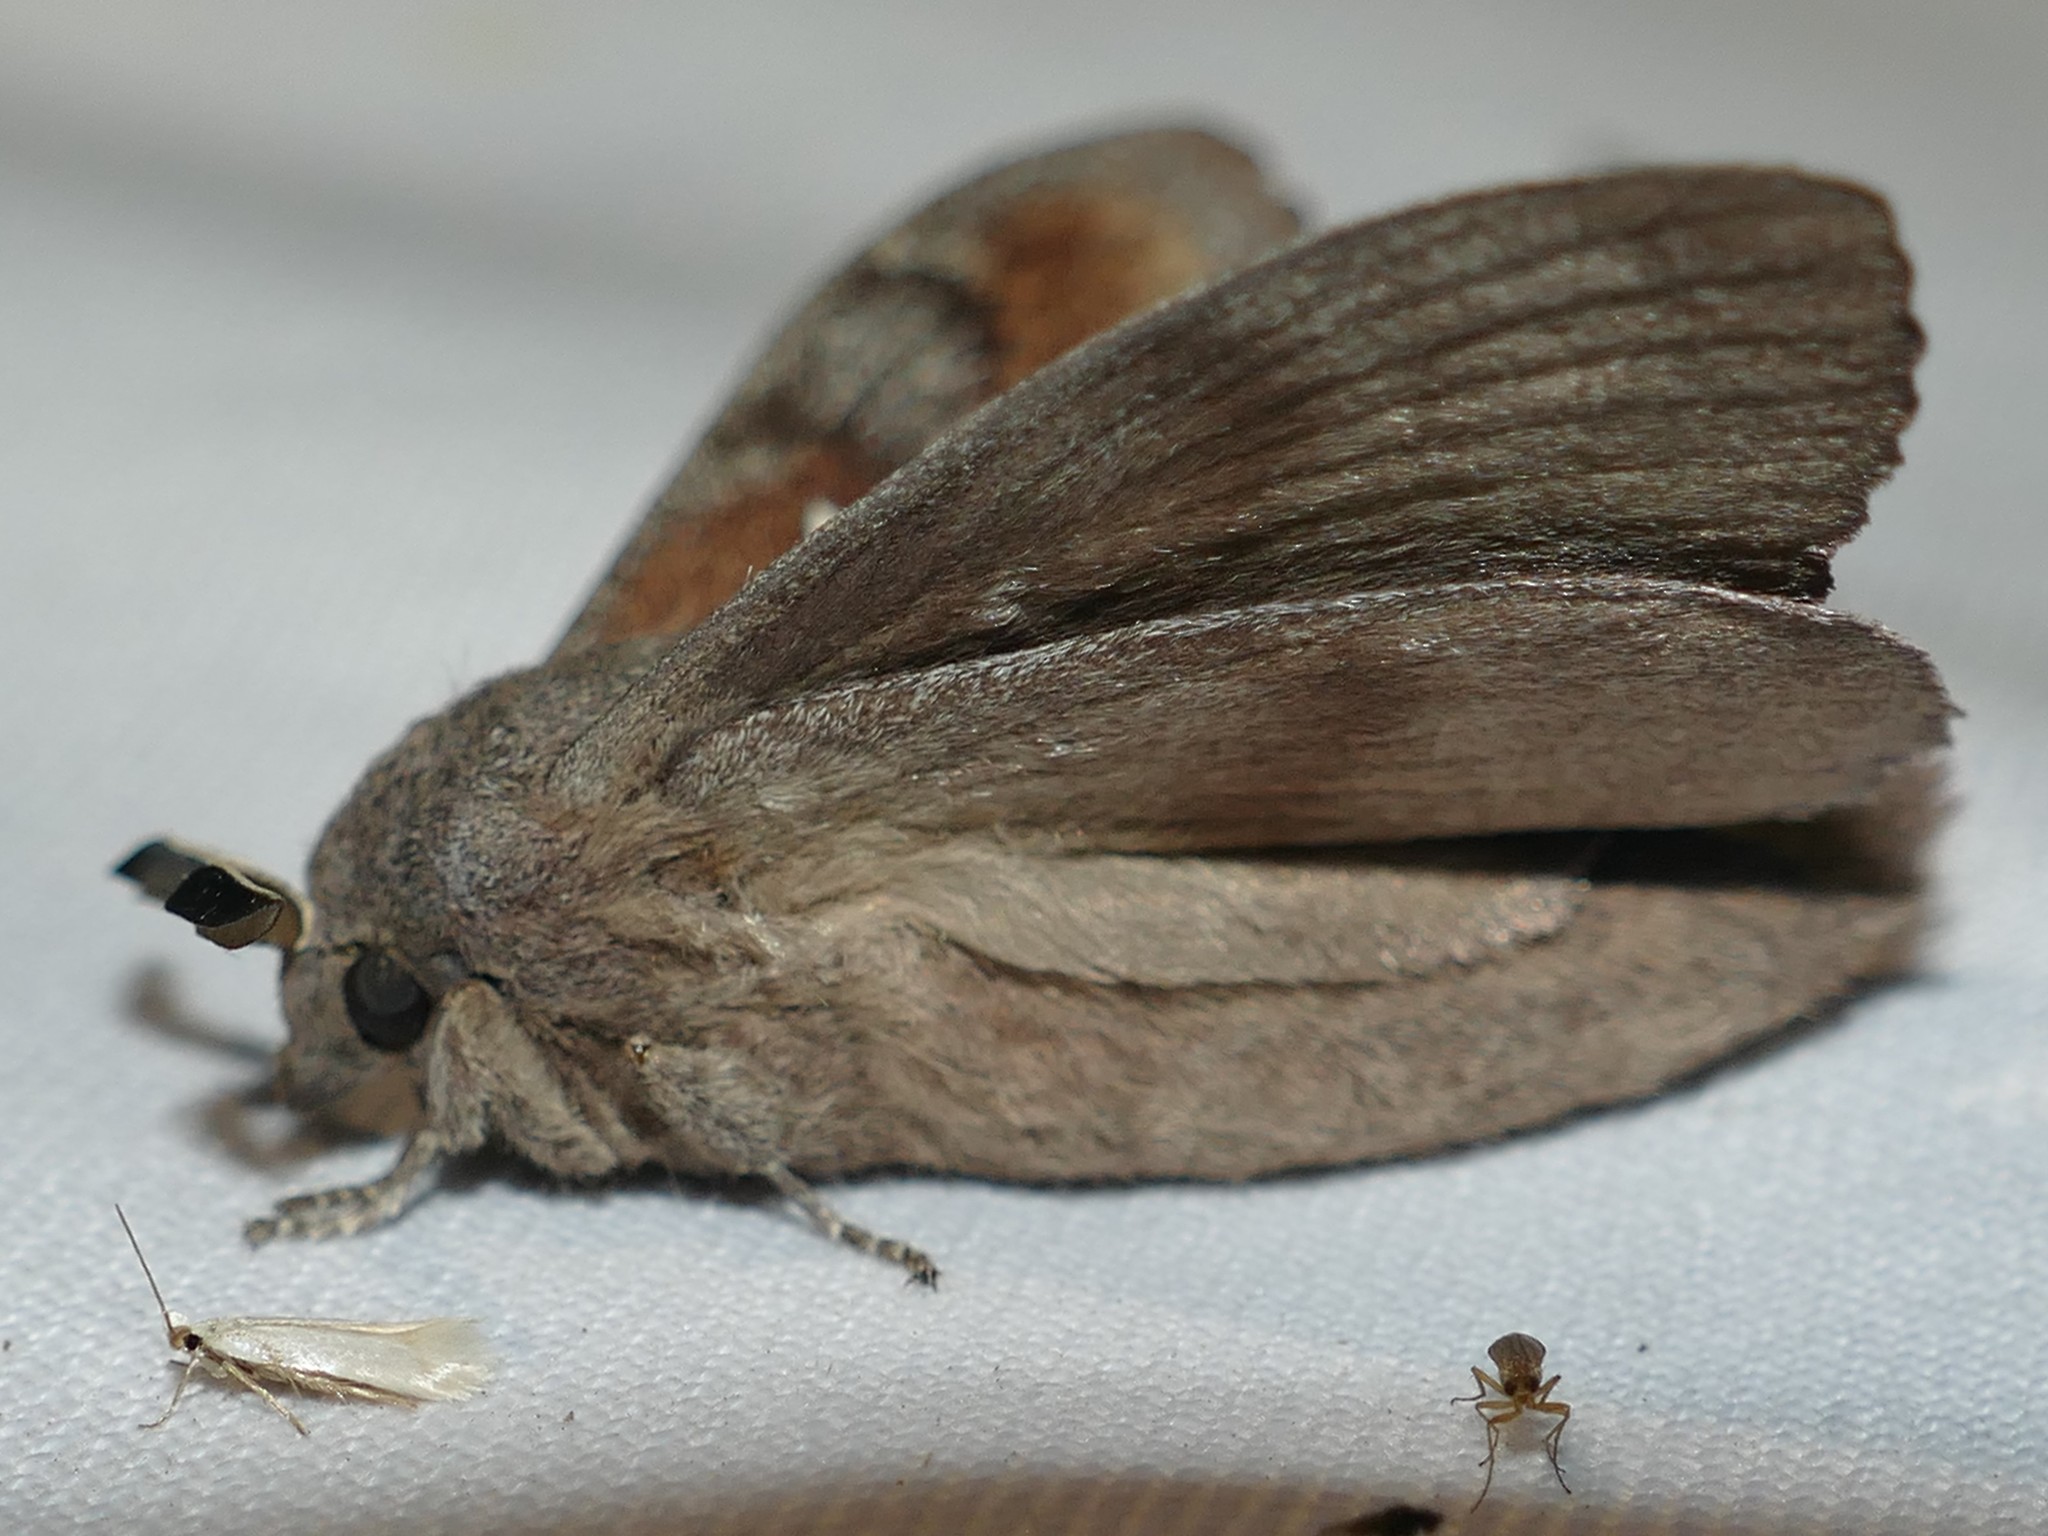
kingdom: Animalia
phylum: Arthropoda
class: Insecta
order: Lepidoptera
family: Lasiocampidae
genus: Dendrolimus
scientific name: Dendrolimus pini
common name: Pine-tree lappet
